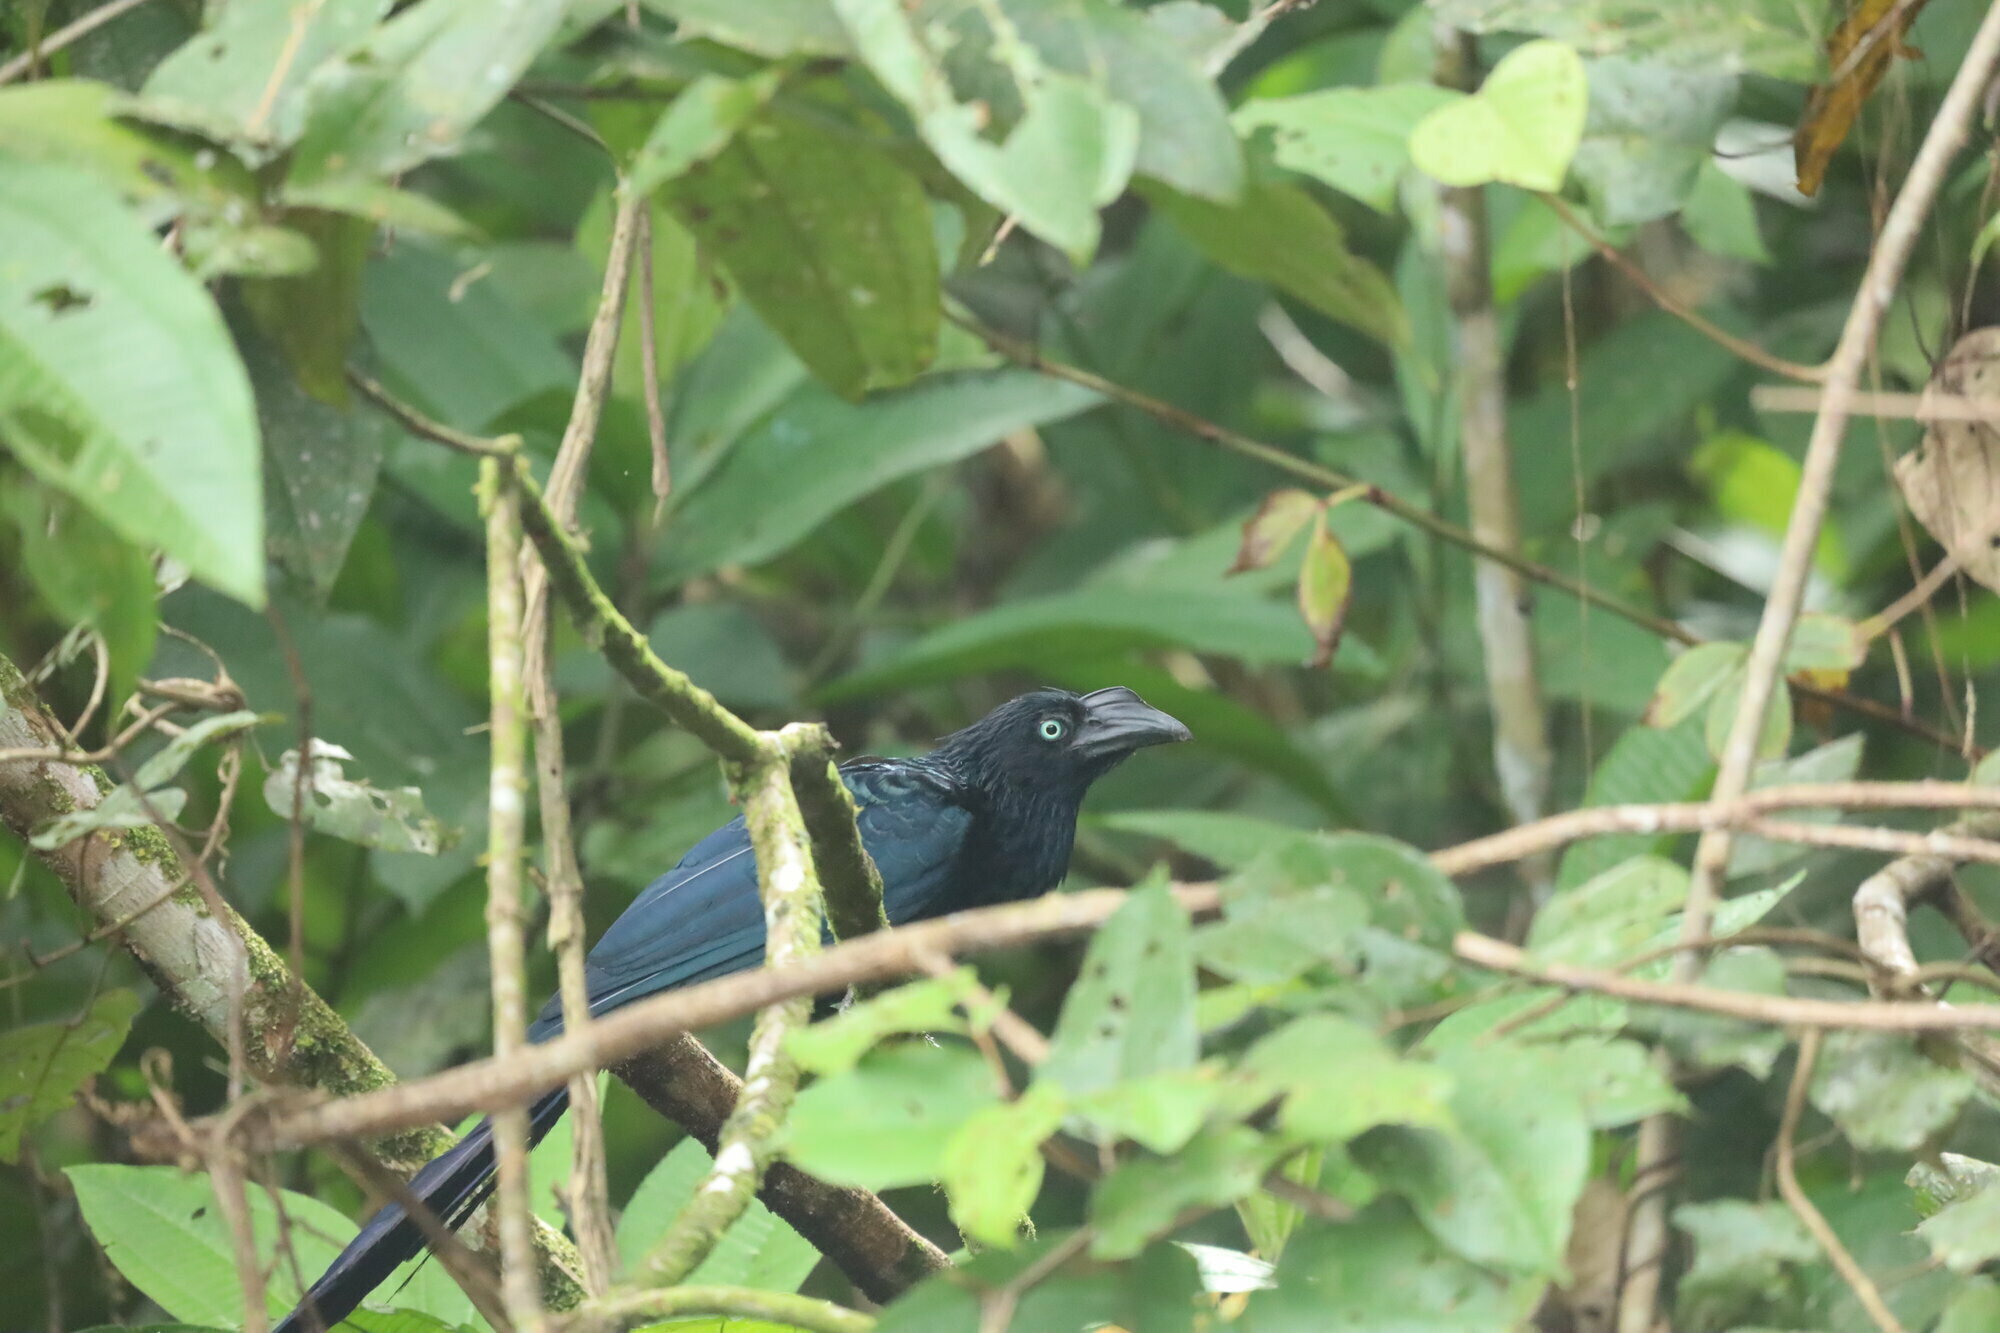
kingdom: Animalia
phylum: Chordata
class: Aves
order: Cuculiformes
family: Cuculidae
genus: Crotophaga
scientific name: Crotophaga major
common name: Greater ani
